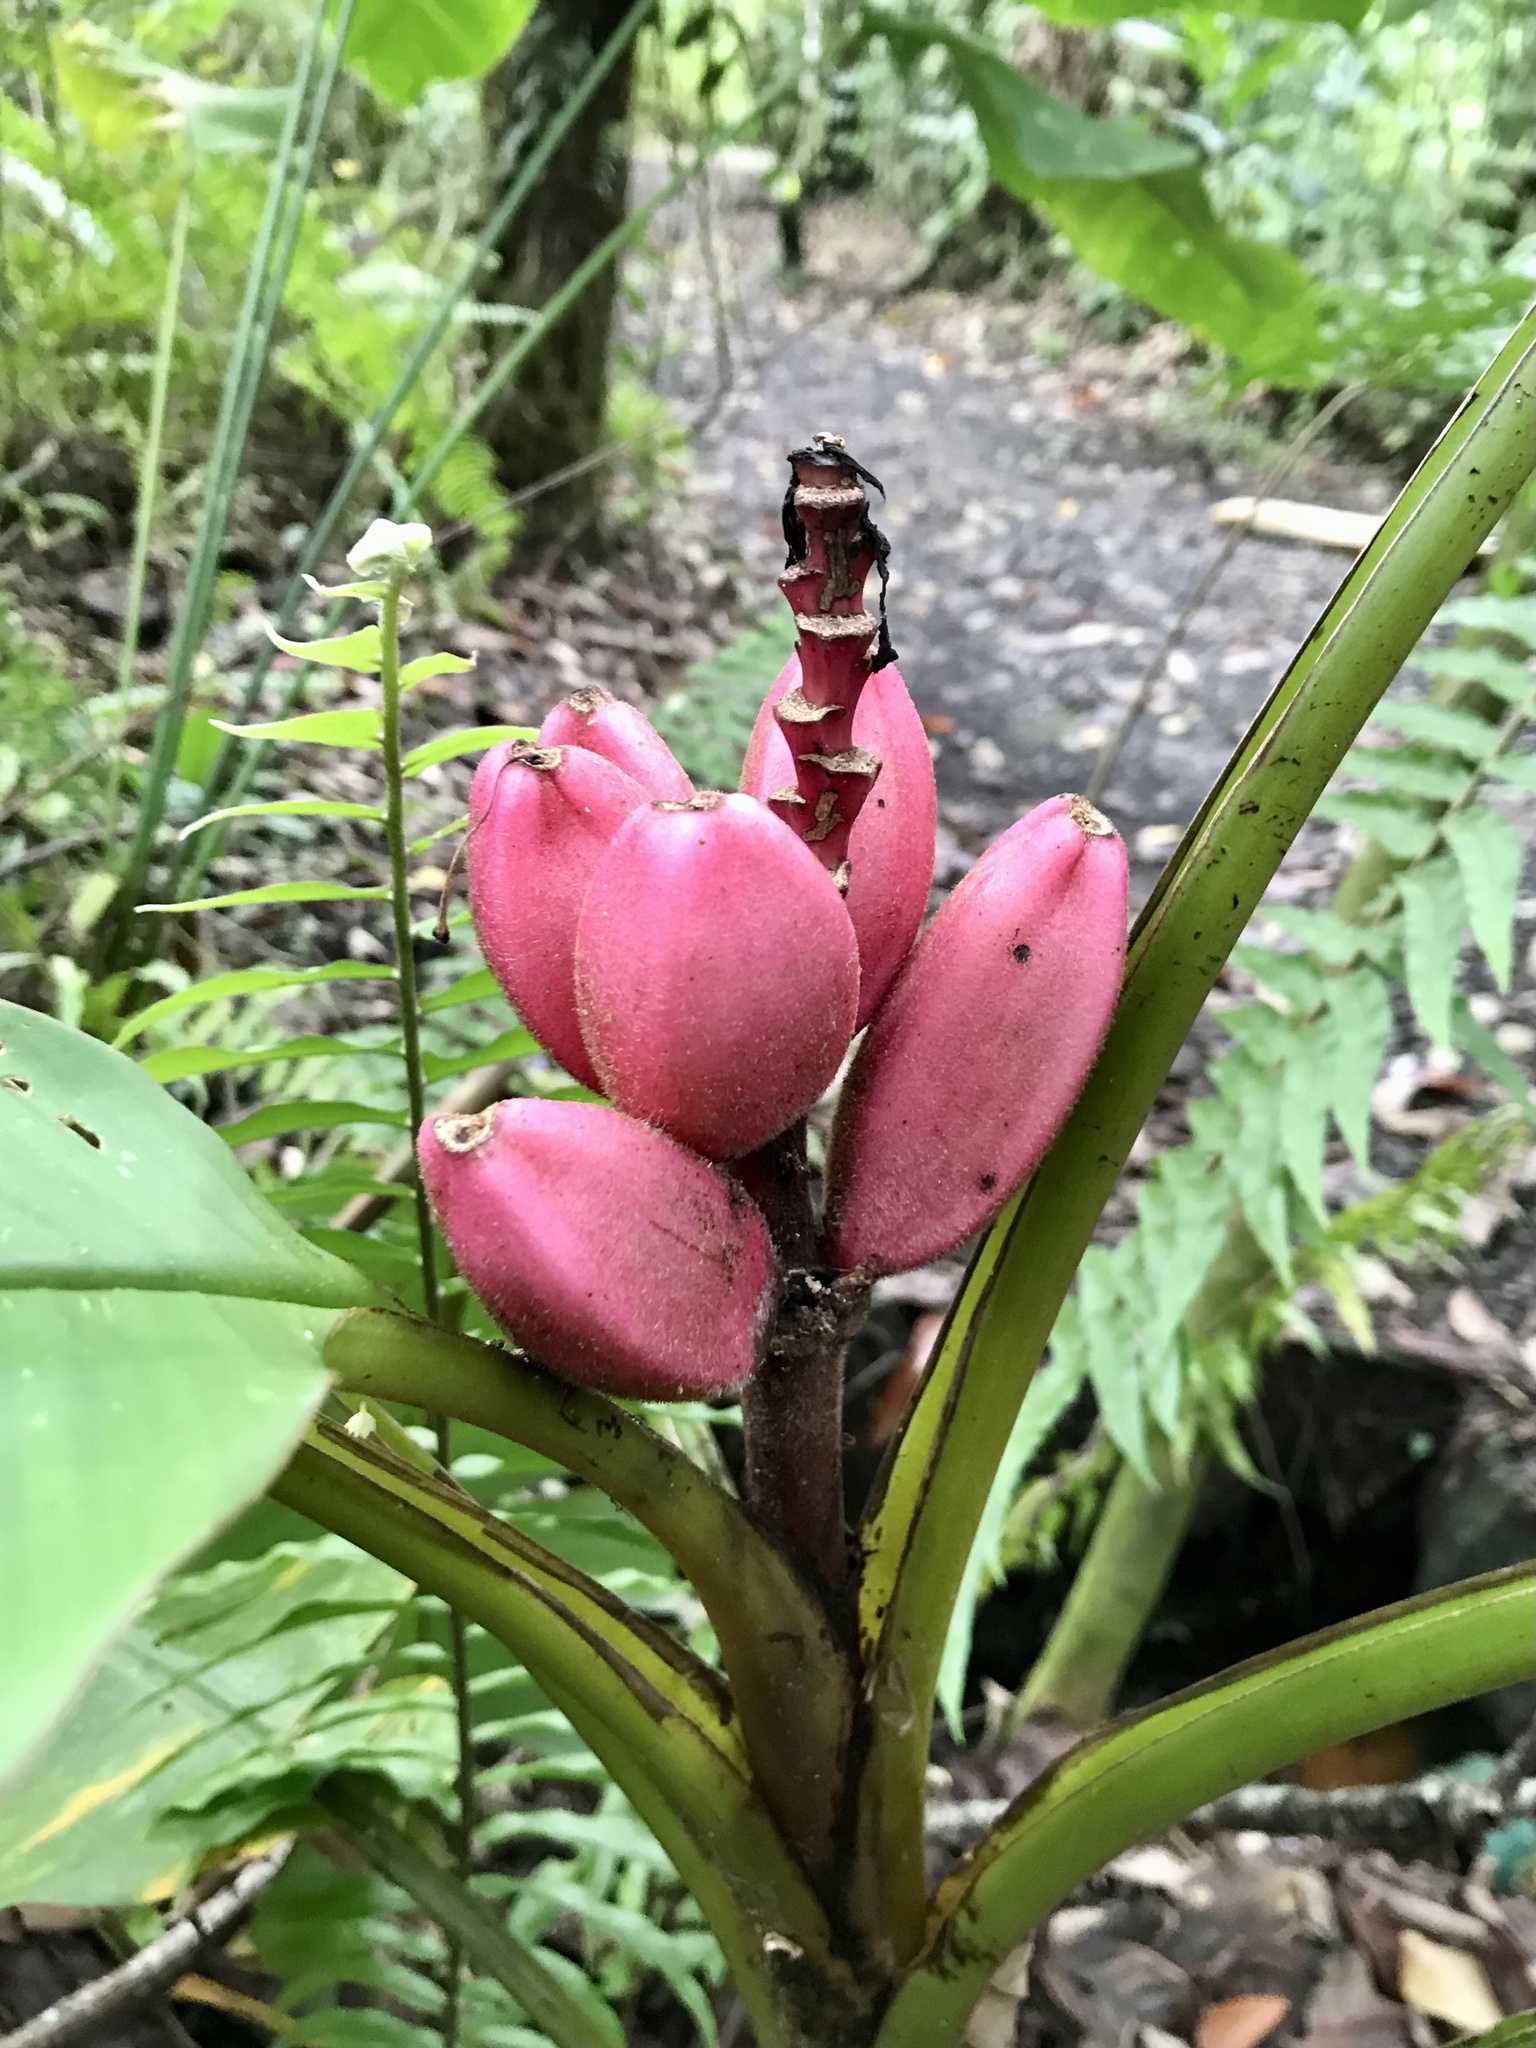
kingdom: Plantae
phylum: Tracheophyta
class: Liliopsida
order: Zingiberales
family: Musaceae
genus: Musa
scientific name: Musa velutina
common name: Pink velvet banana
